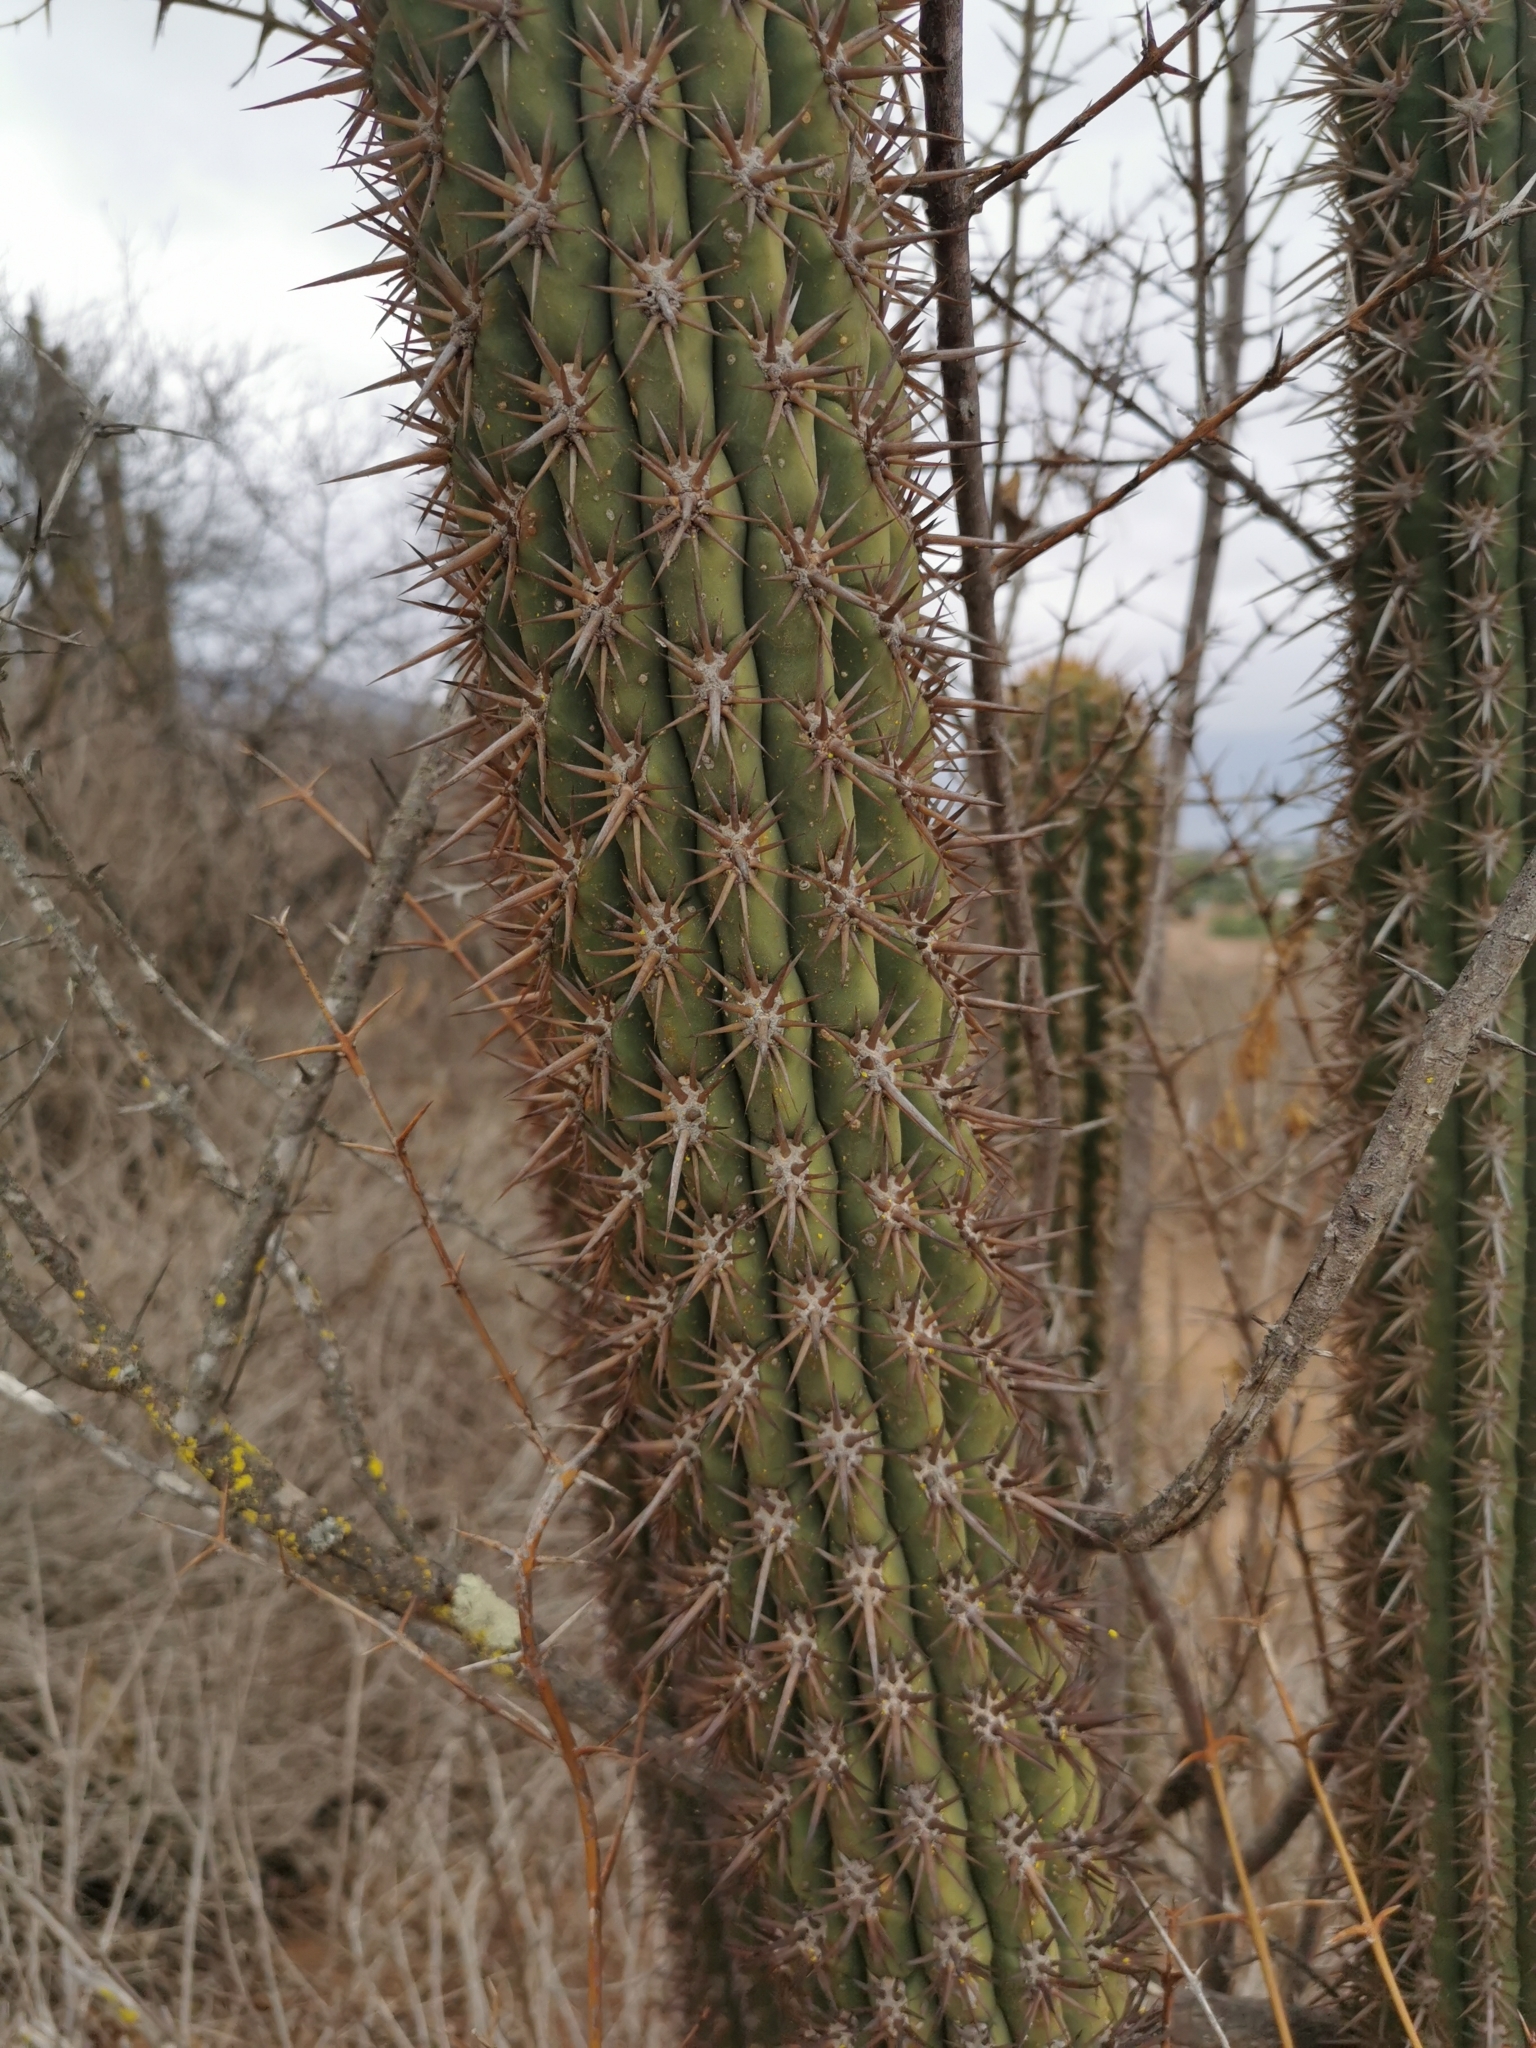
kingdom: Plantae
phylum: Tracheophyta
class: Magnoliopsida
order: Caryophyllales
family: Cactaceae
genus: Leucostele
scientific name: Leucostele chiloensis
